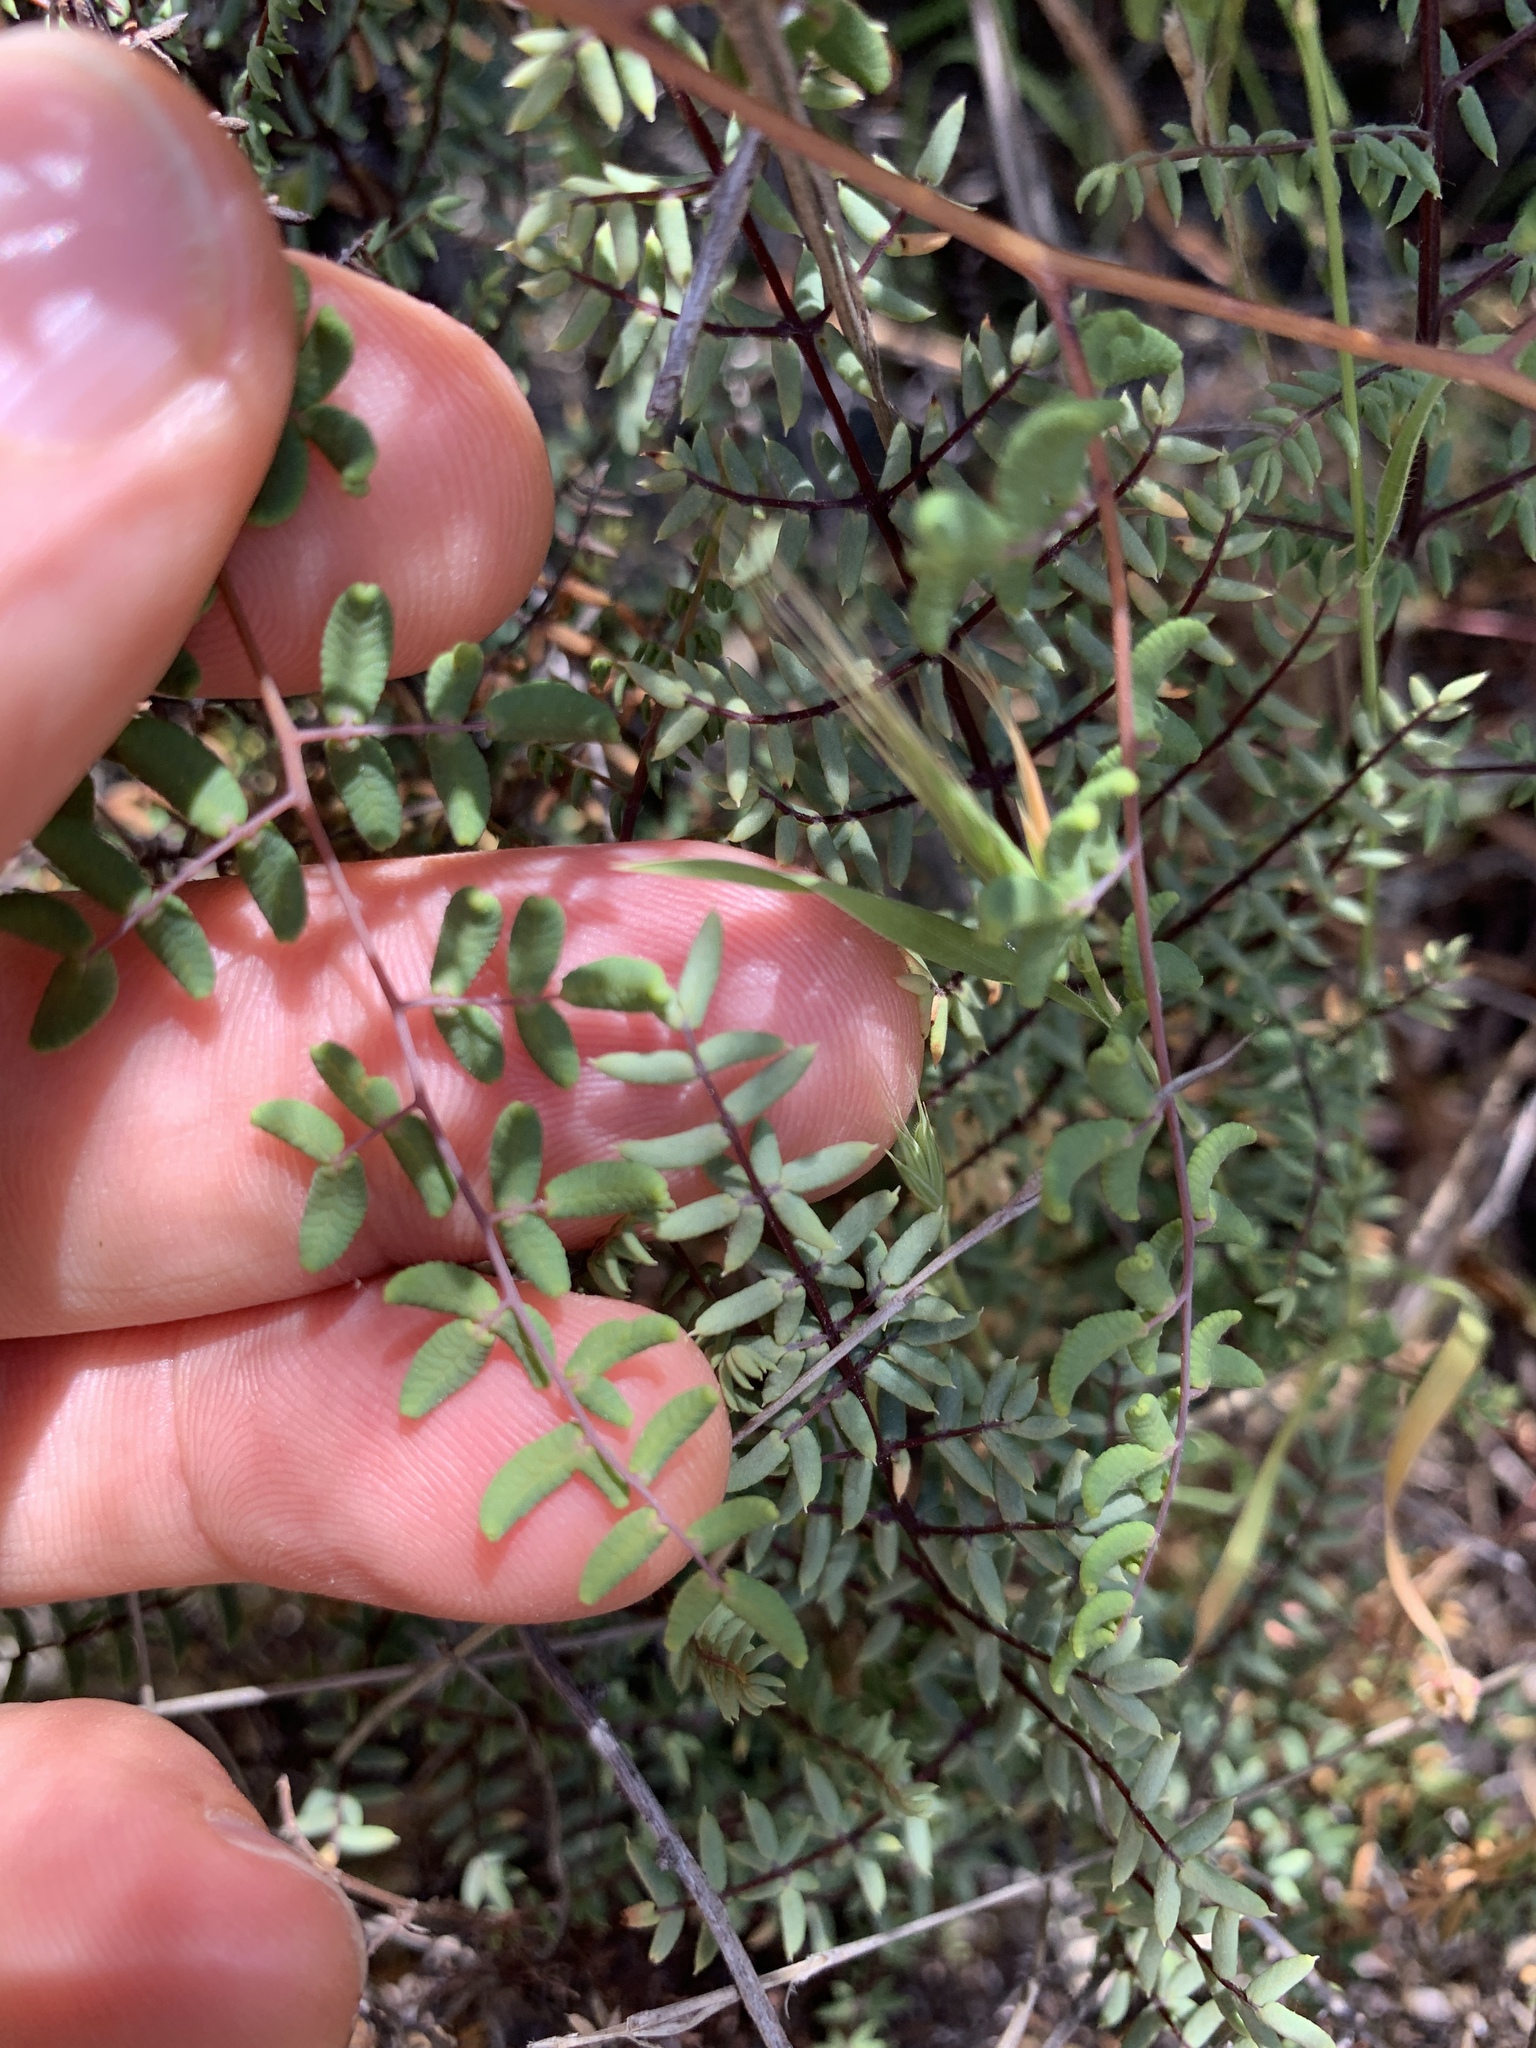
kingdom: Plantae
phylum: Tracheophyta
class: Polypodiopsida
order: Polypodiales
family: Pteridaceae
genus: Pellaea
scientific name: Pellaea andromedifolia
